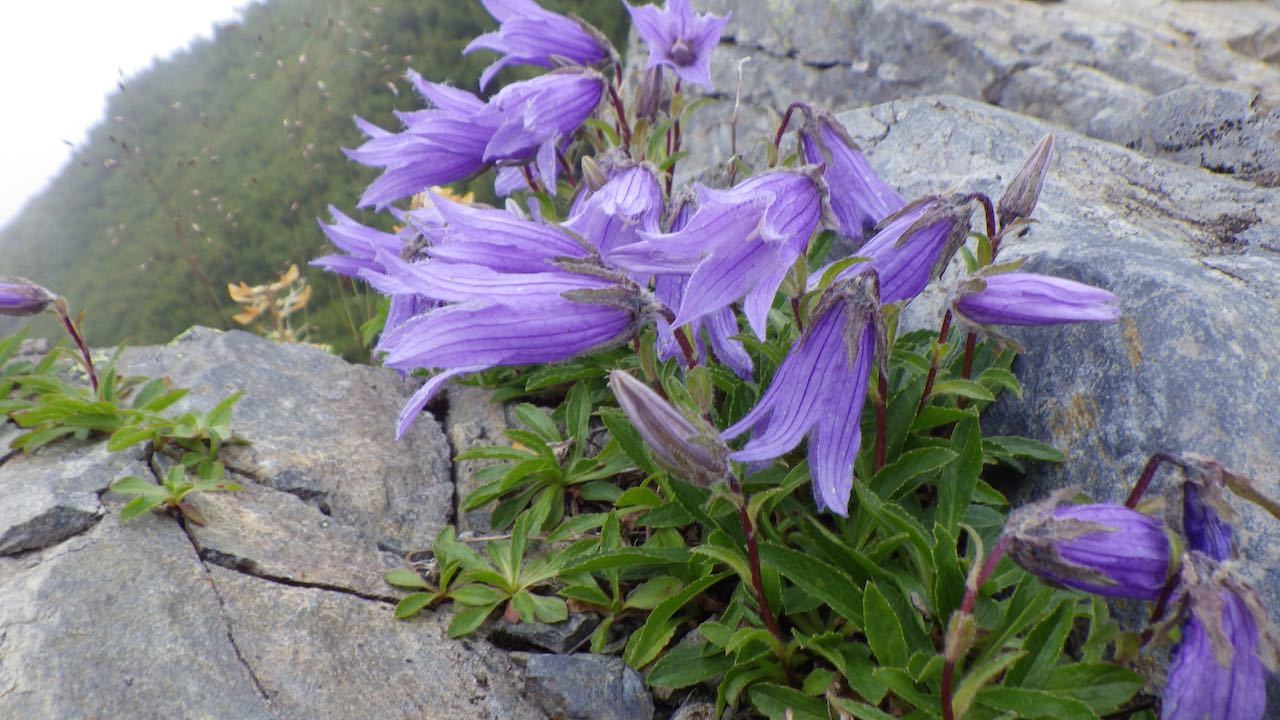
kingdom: Plantae
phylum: Tracheophyta
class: Magnoliopsida
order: Asterales
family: Campanulaceae
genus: Campanula
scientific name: Campanula dasyantha
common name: Hairyflower bellflower
